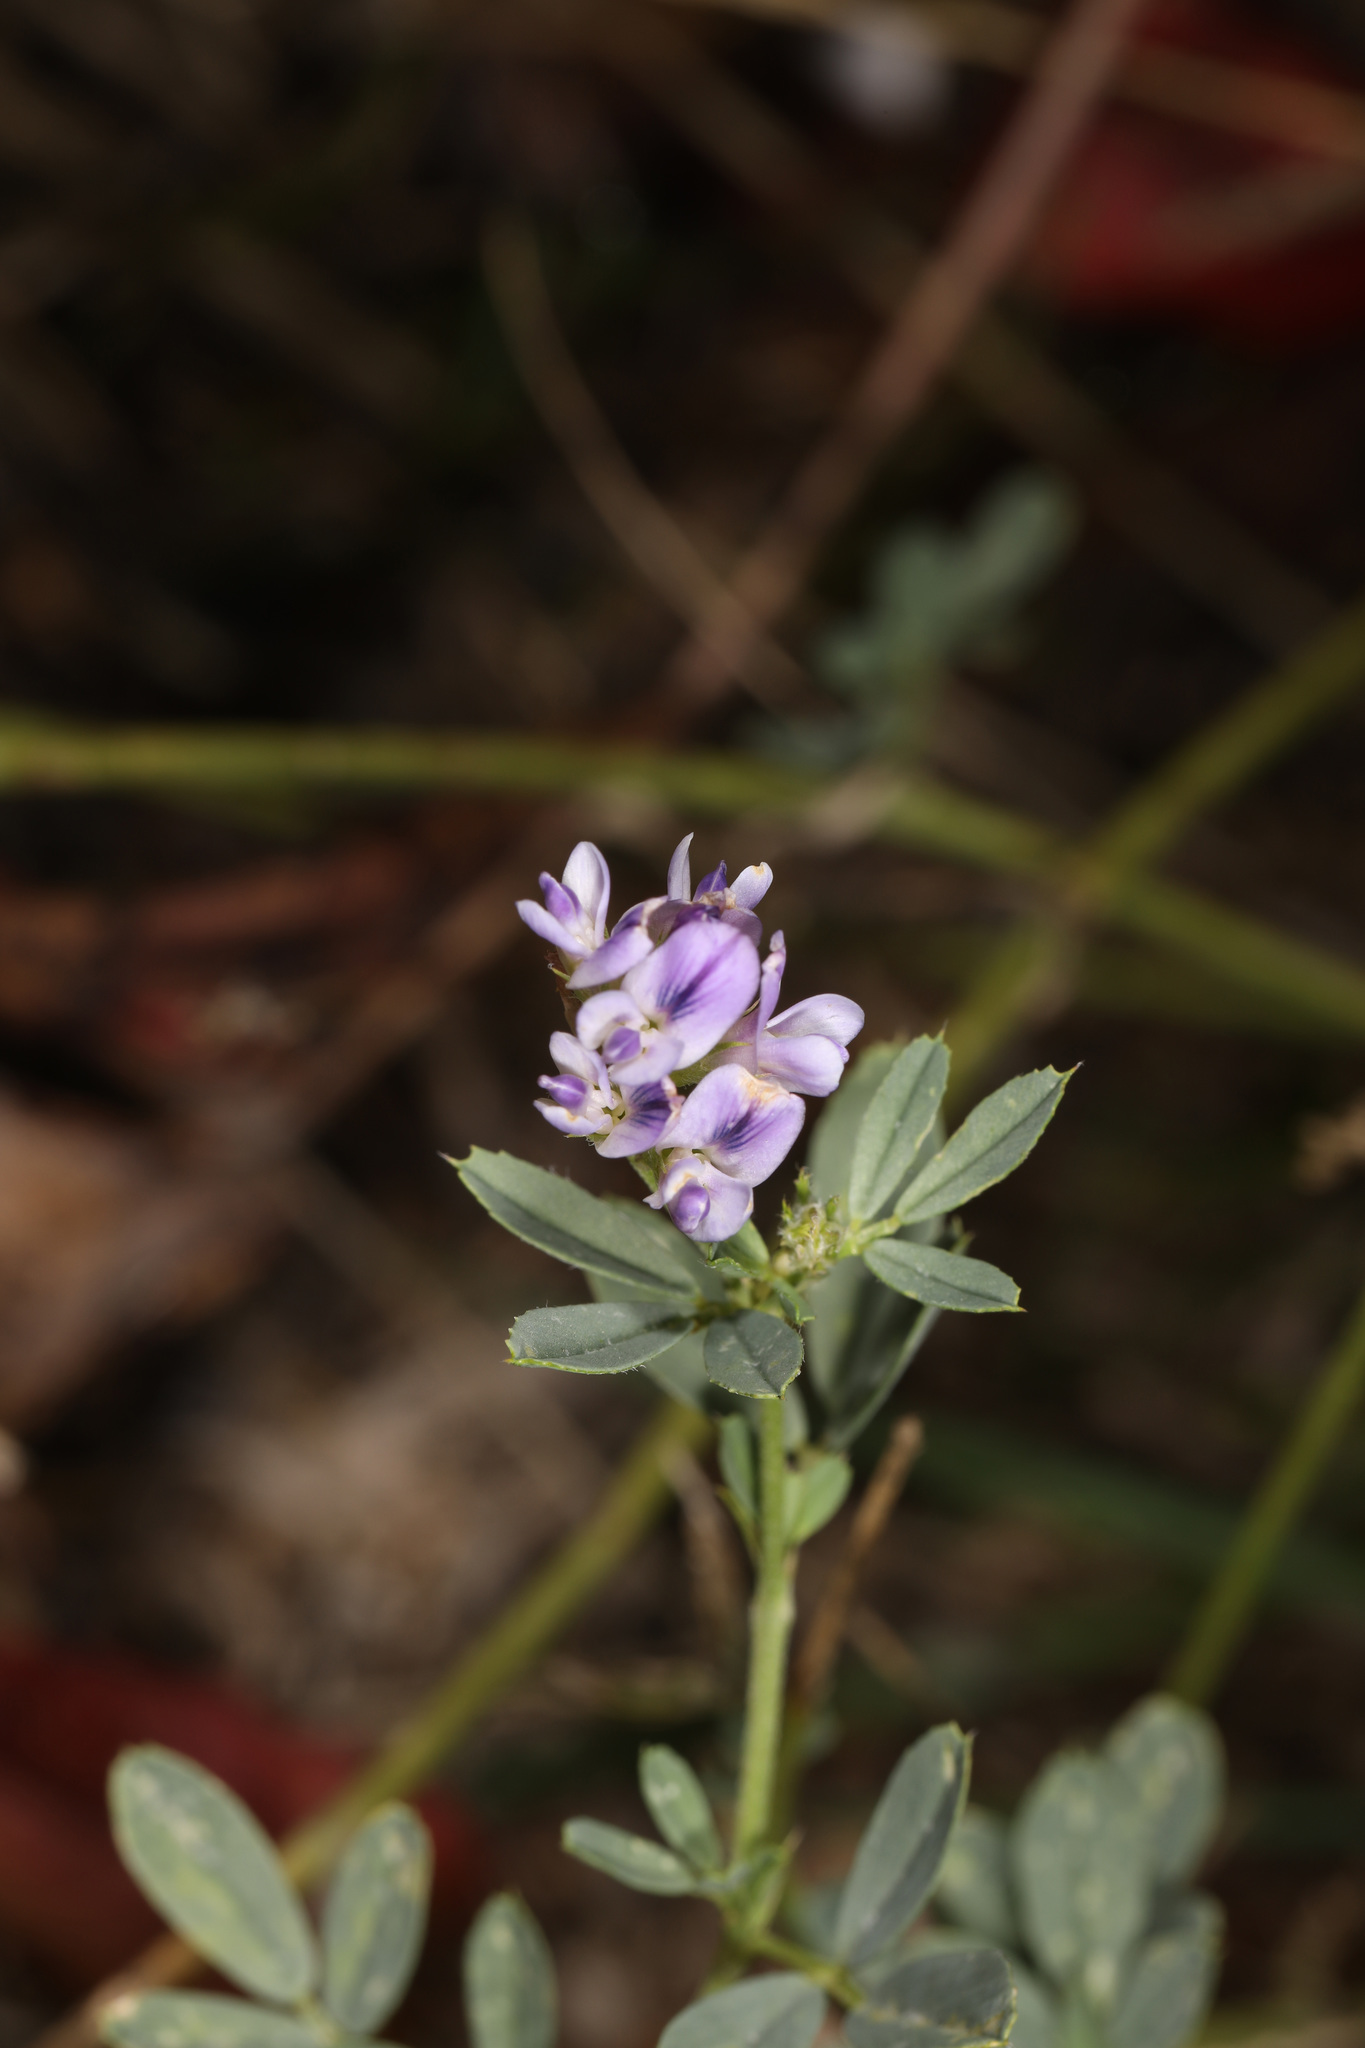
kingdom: Plantae
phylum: Tracheophyta
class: Magnoliopsida
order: Fabales
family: Fabaceae
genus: Medicago
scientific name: Medicago sativa
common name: Alfalfa
